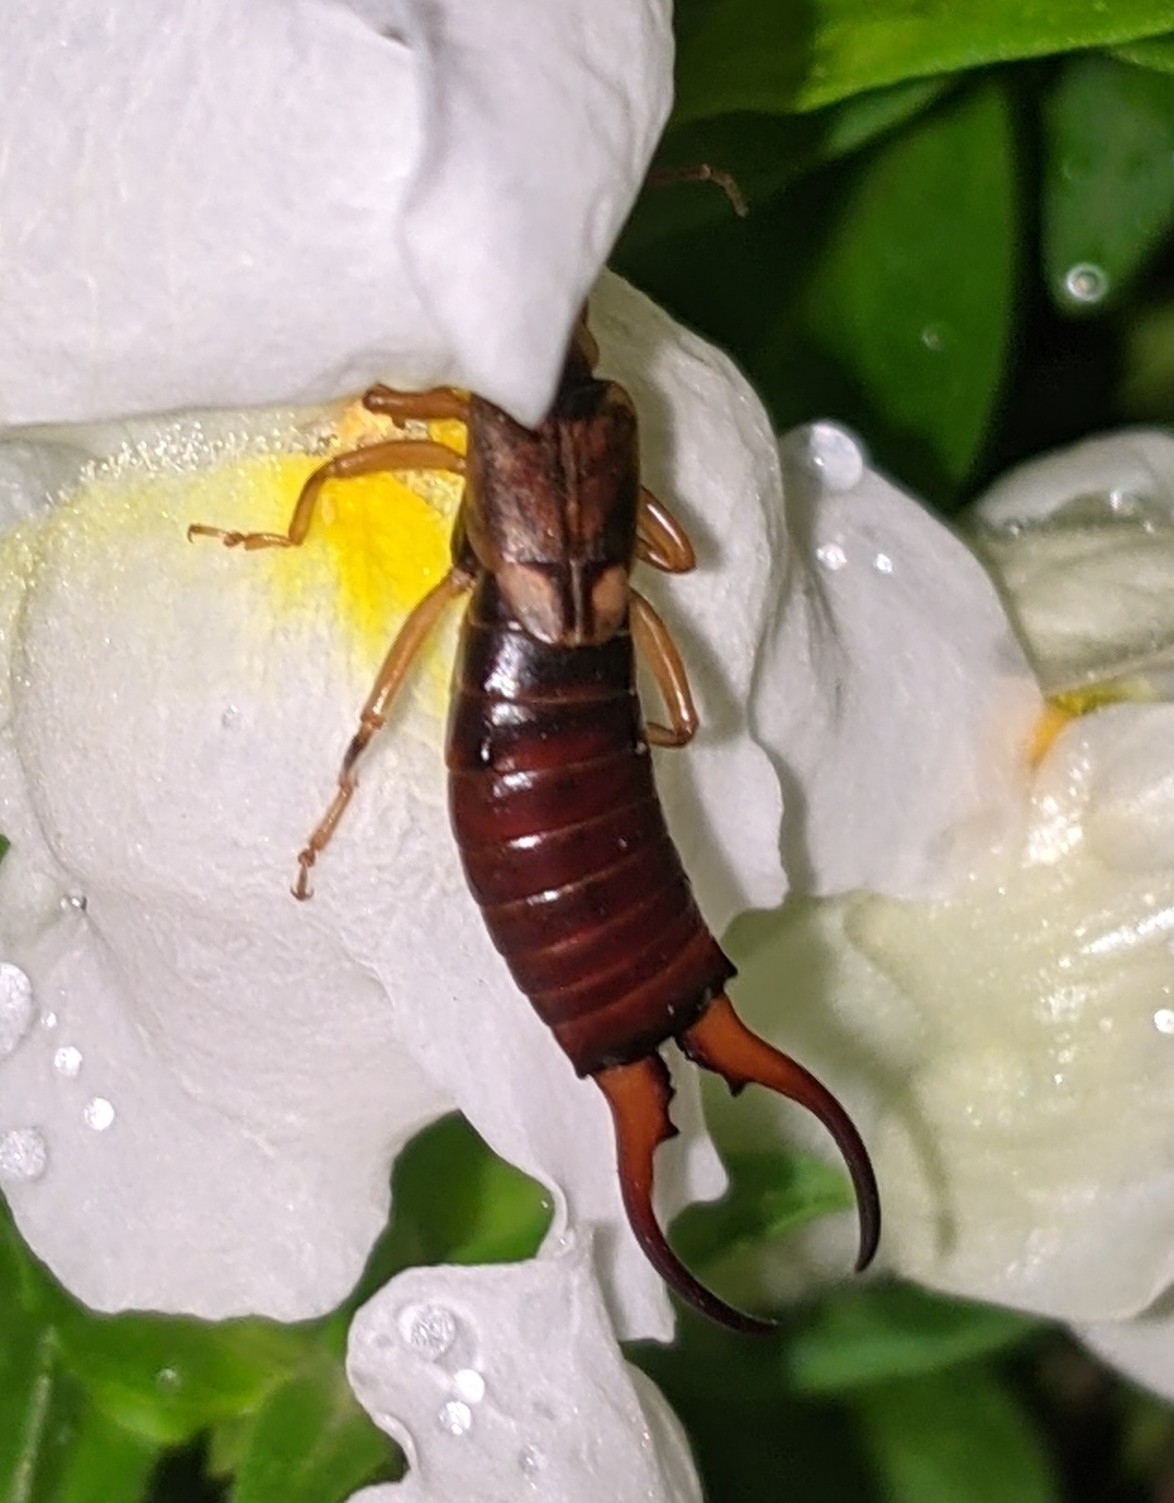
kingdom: Animalia
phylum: Arthropoda
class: Insecta
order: Dermaptera
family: Forficulidae
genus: Forficula
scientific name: Forficula
